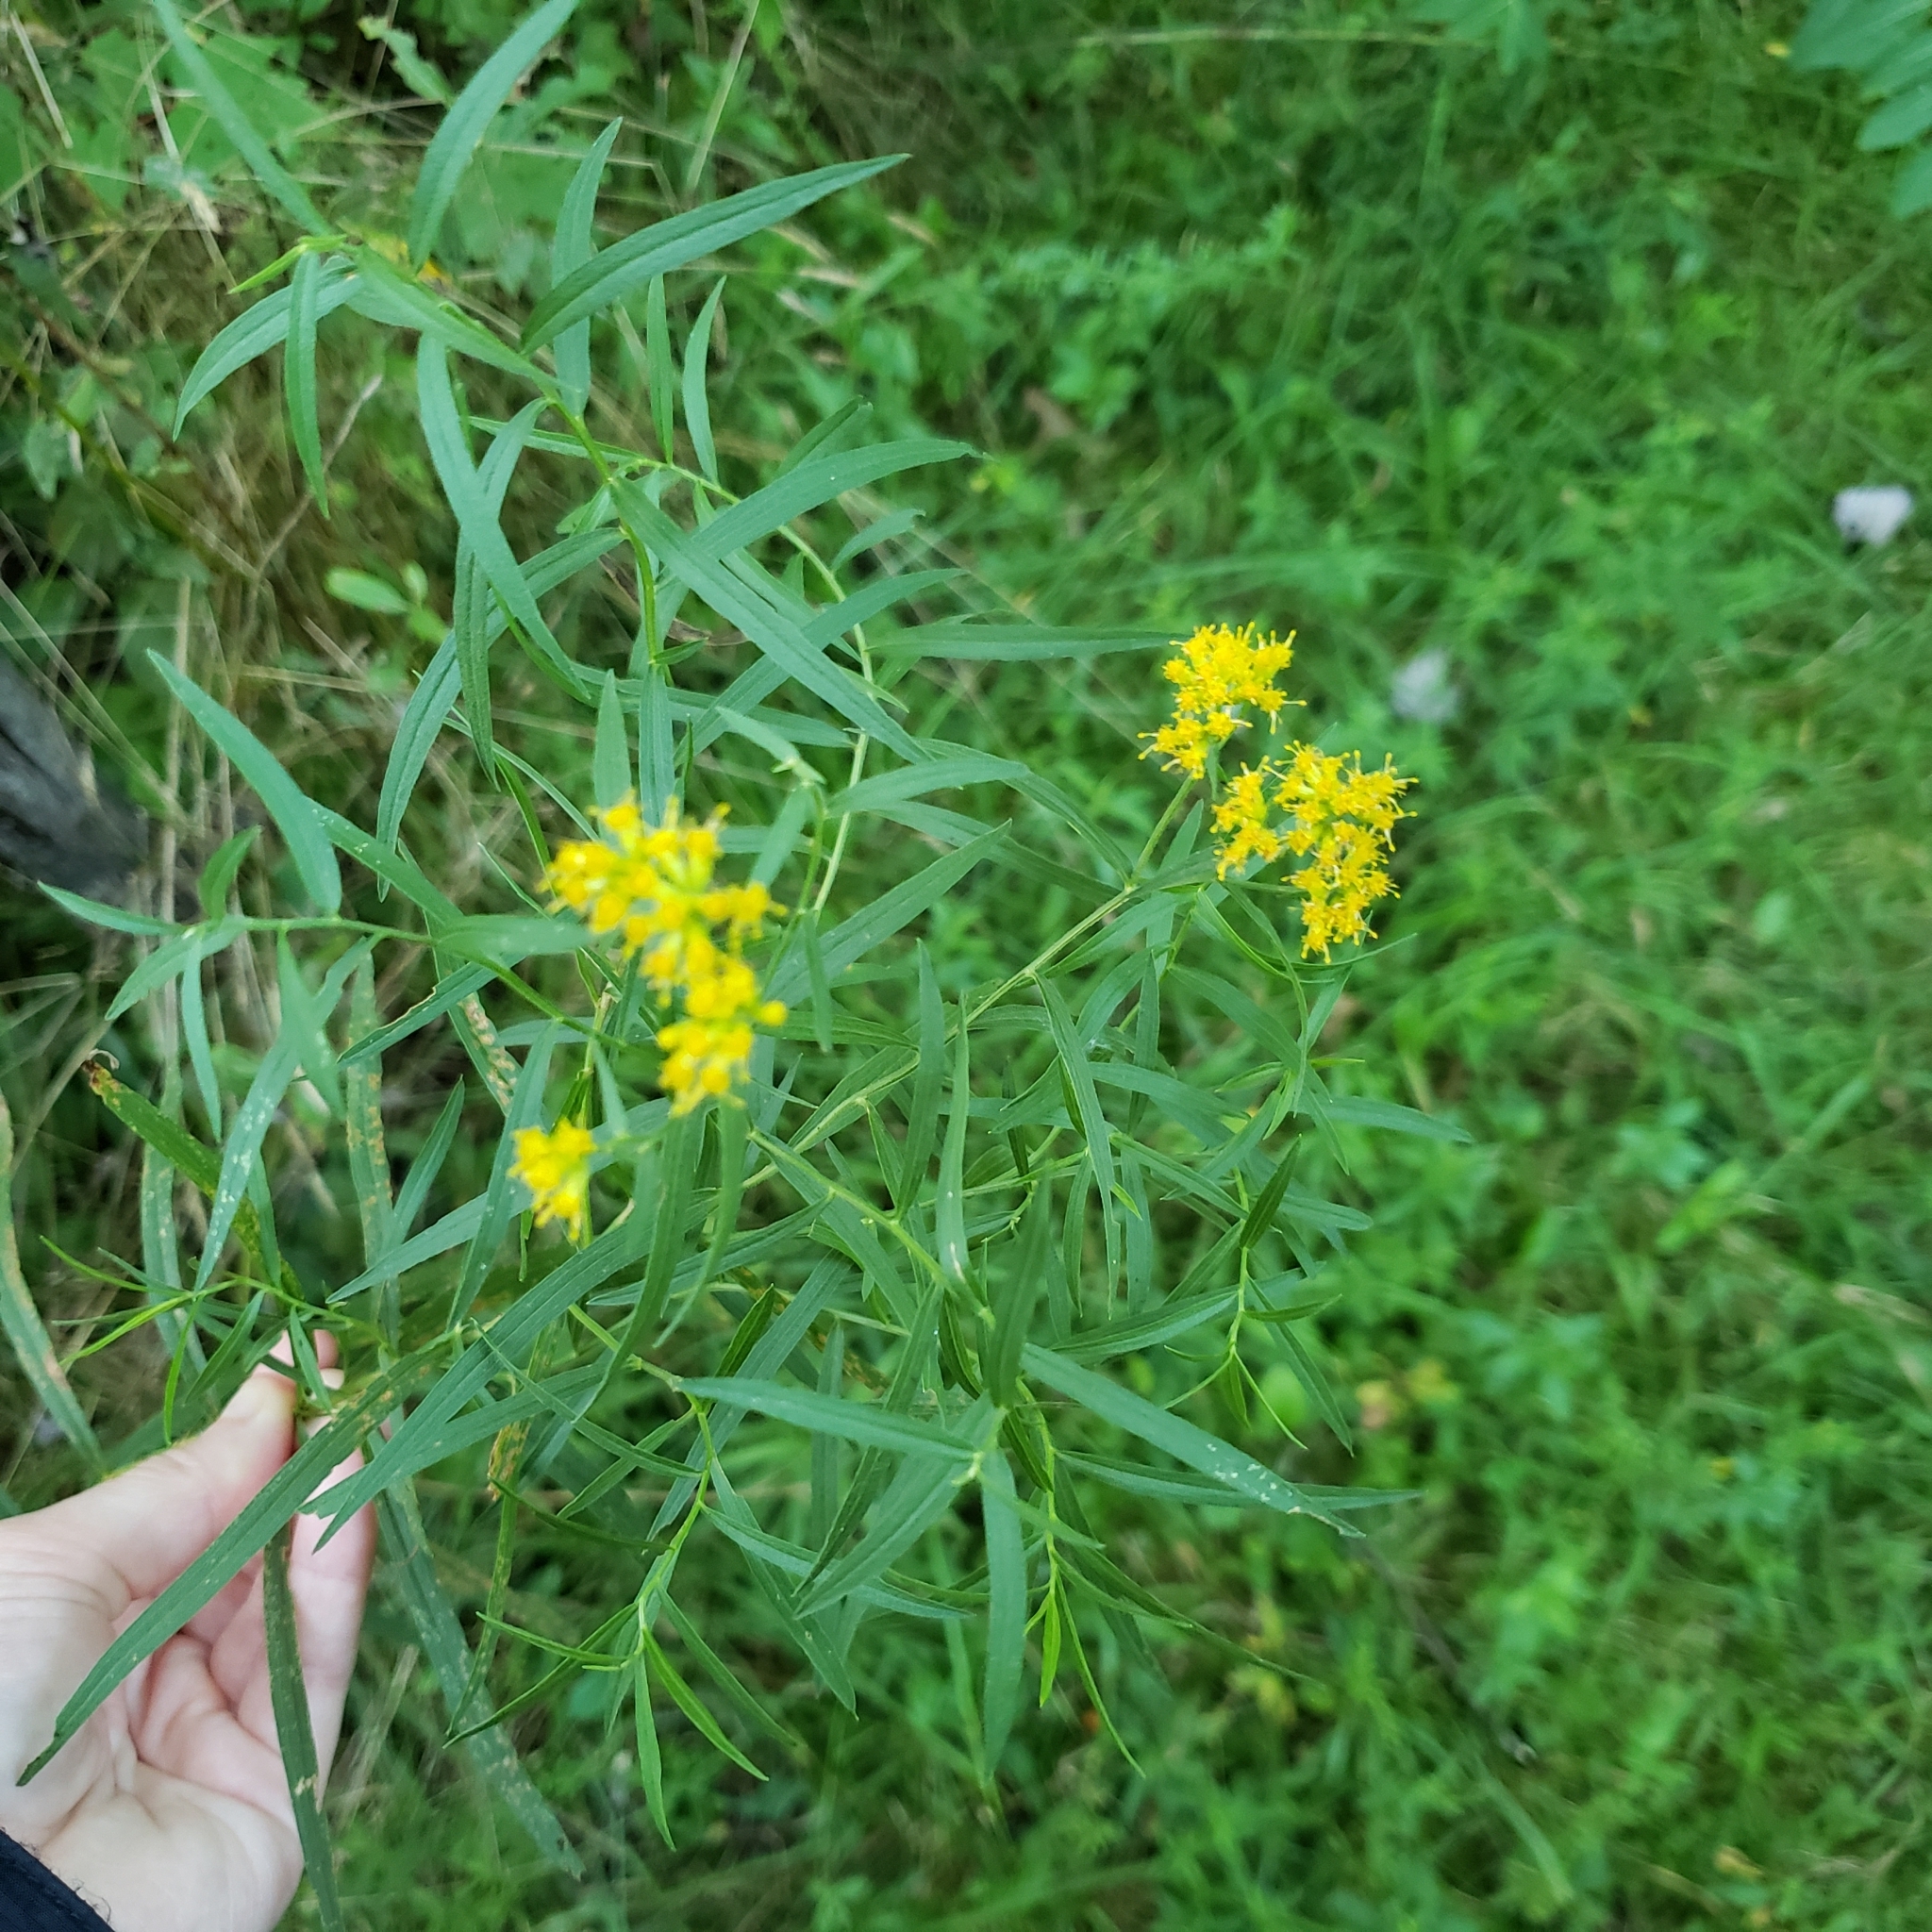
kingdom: Plantae
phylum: Tracheophyta
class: Magnoliopsida
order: Asterales
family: Asteraceae
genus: Euthamia
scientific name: Euthamia graminifolia
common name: Common goldentop
